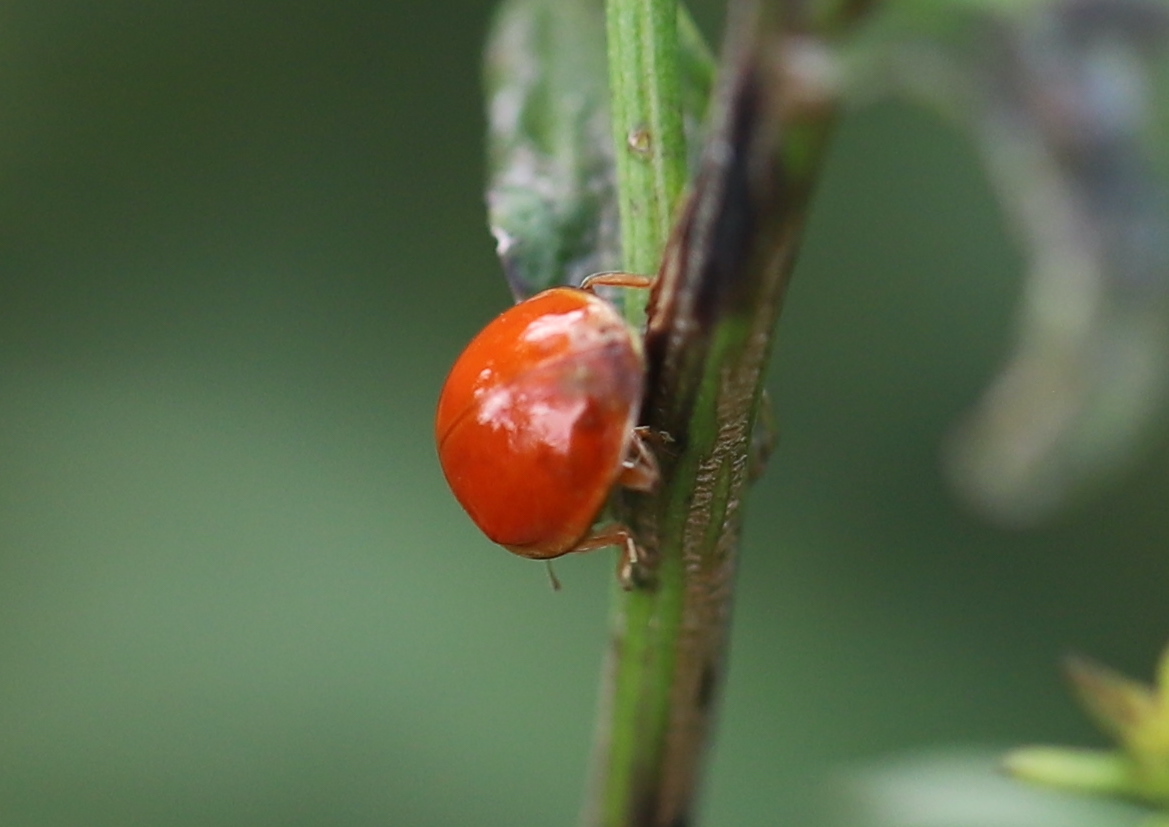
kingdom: Animalia
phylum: Arthropoda
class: Insecta
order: Coleoptera
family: Coccinellidae
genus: Harmonia
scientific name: Harmonia axyridis
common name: Harlequin ladybird
